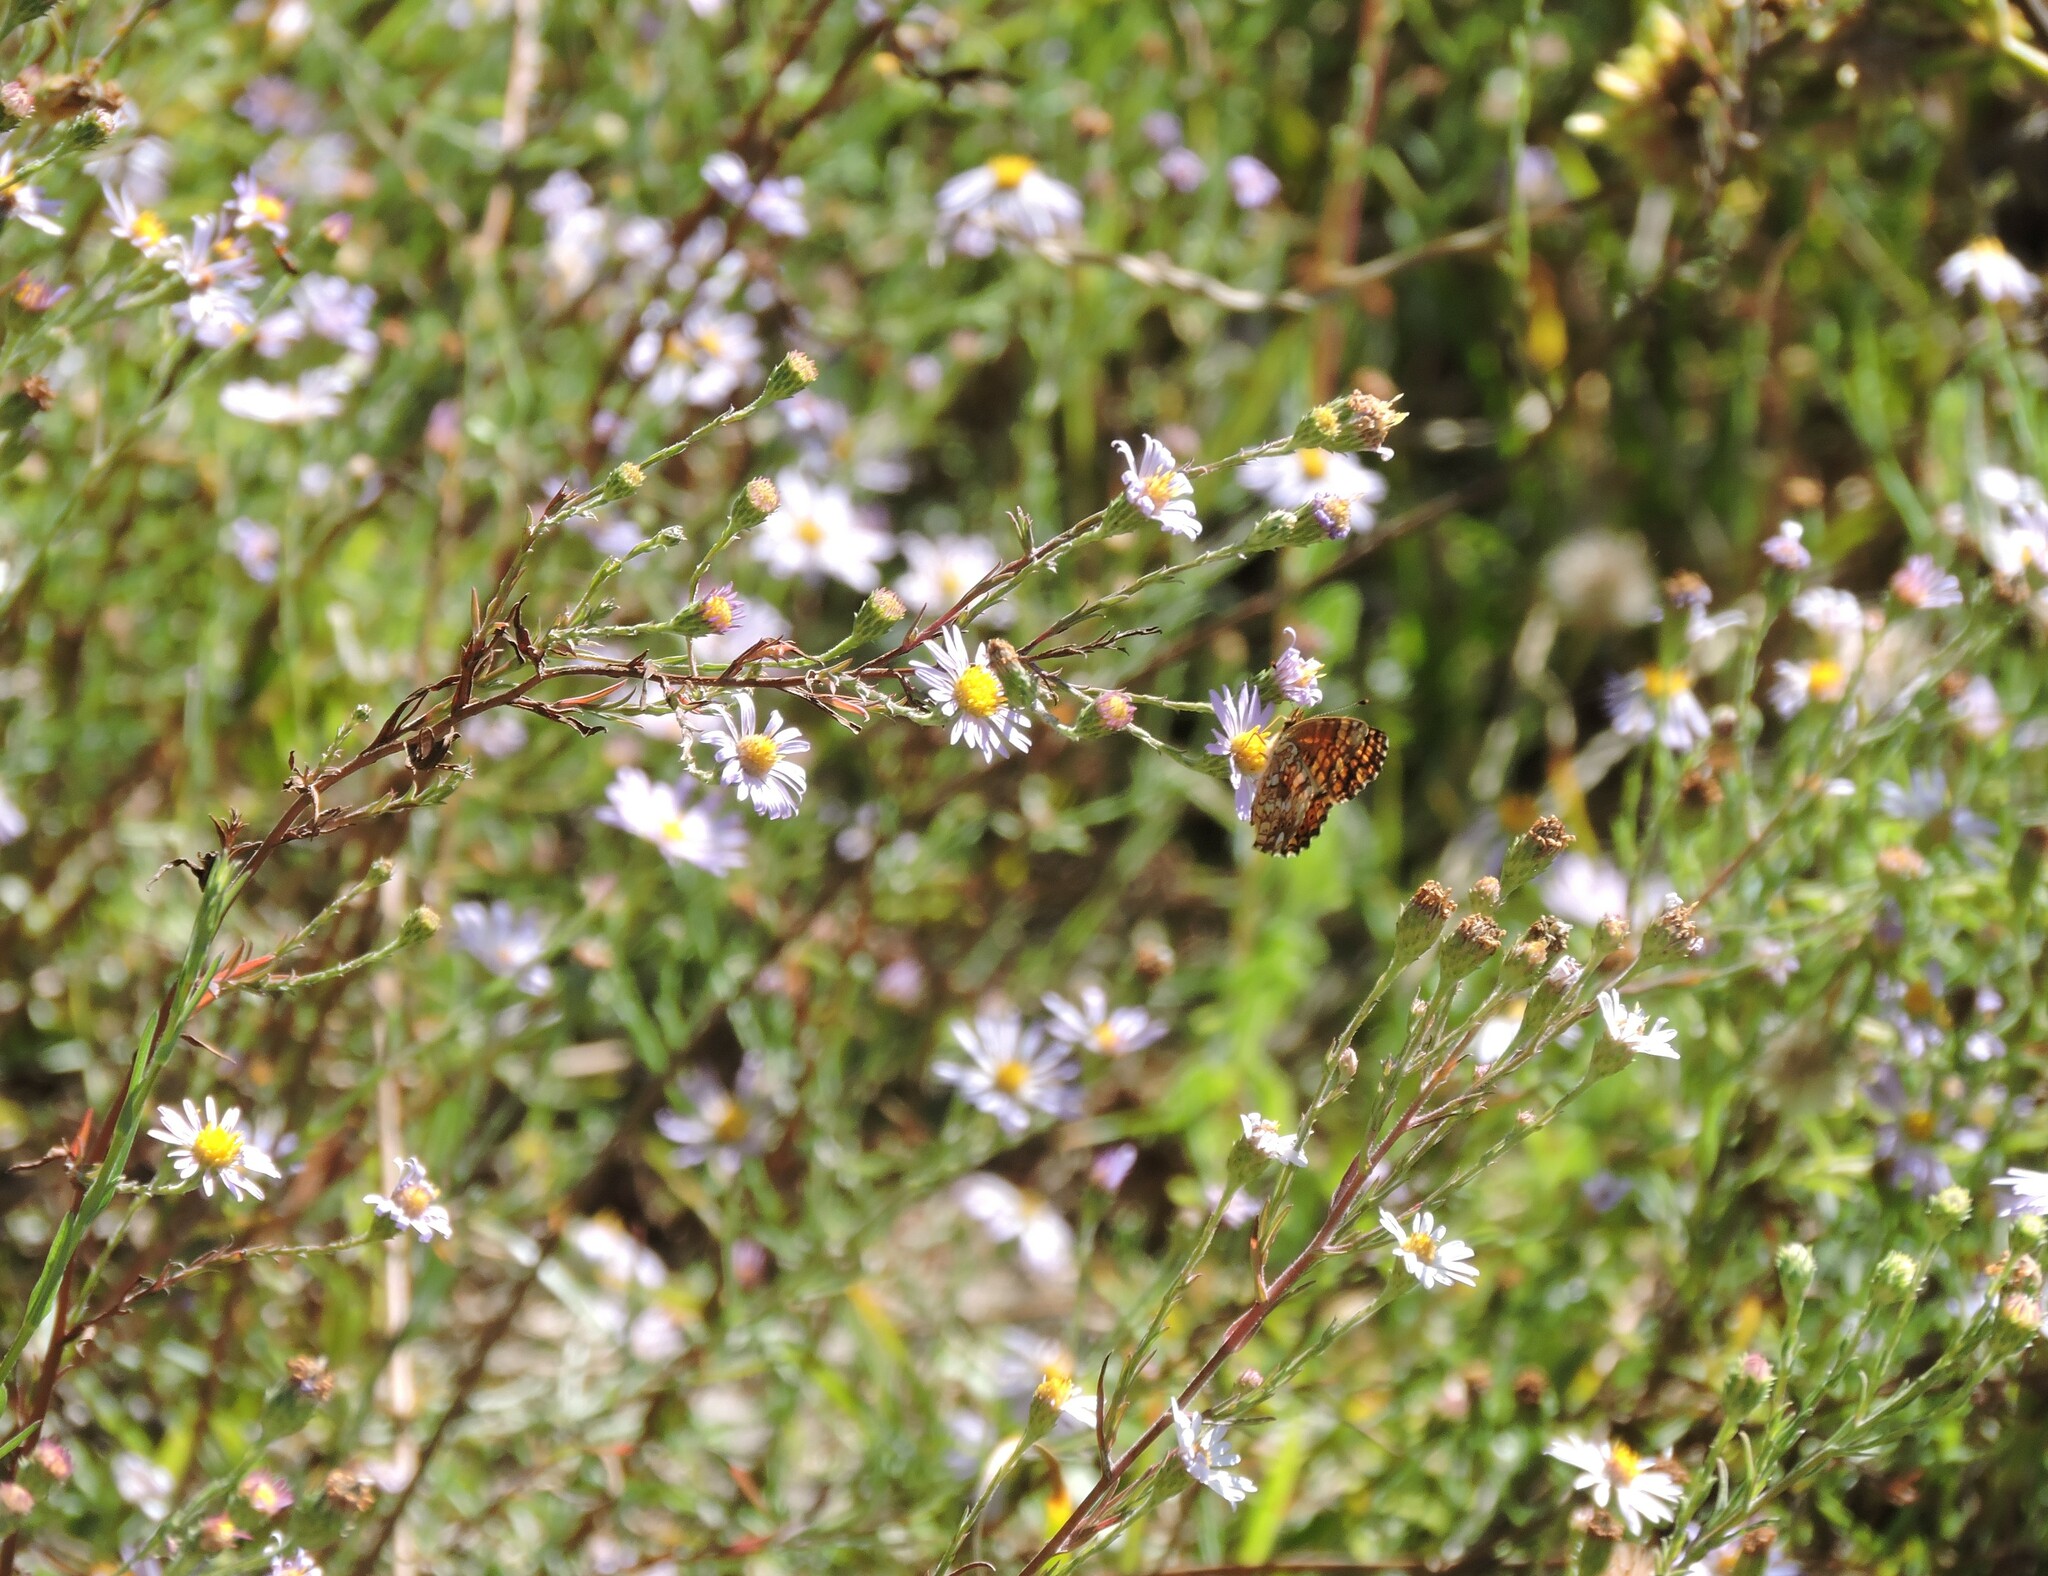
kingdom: Plantae
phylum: Tracheophyta
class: Magnoliopsida
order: Asterales
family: Asteraceae
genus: Symphyotrichum
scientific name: Symphyotrichum chilense
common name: Pacific aster
